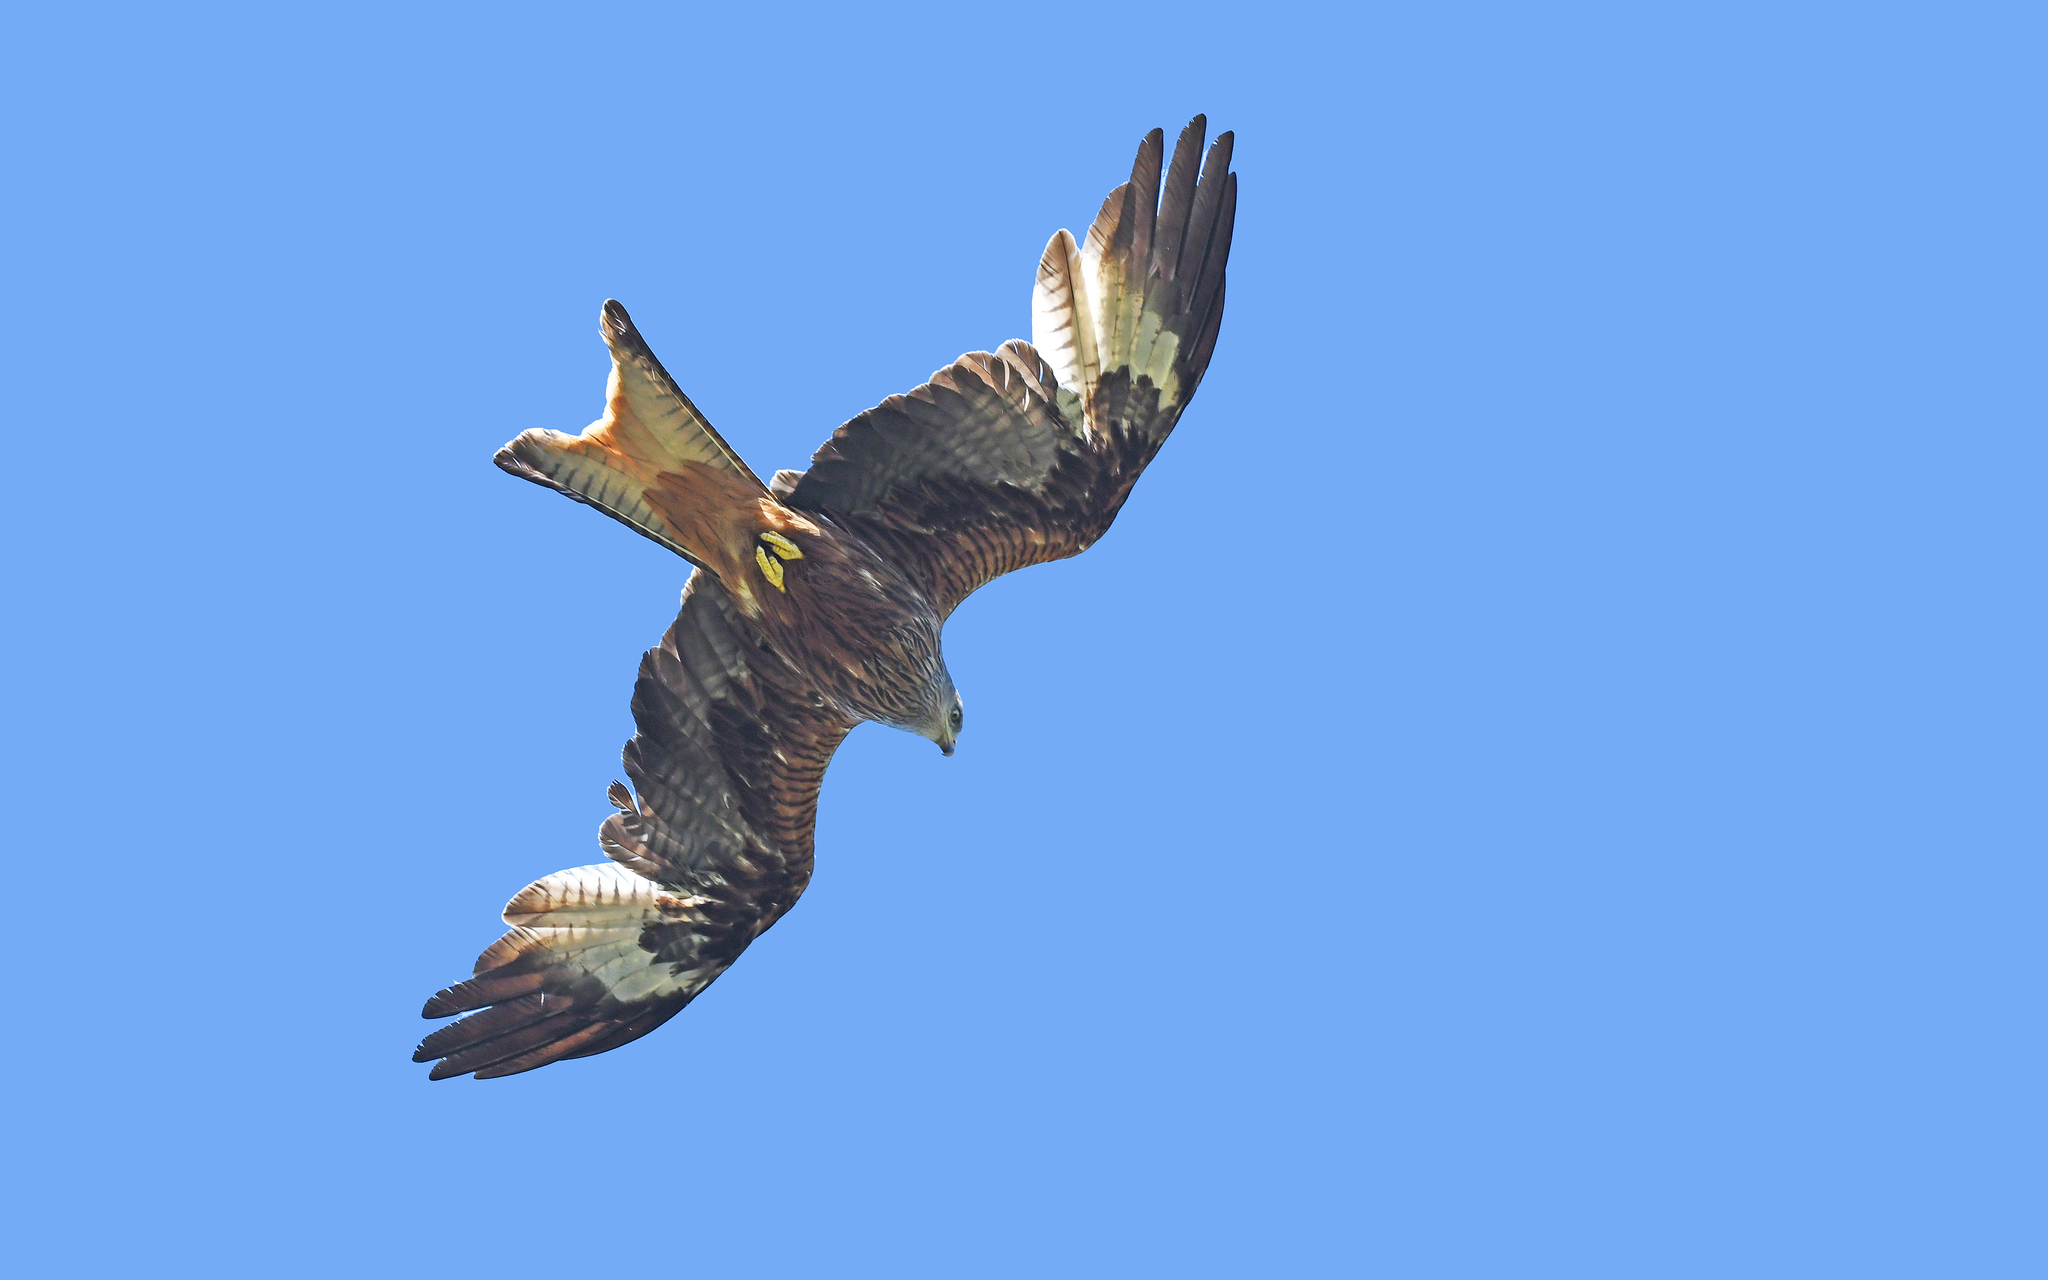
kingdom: Animalia
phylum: Chordata
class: Aves
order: Accipitriformes
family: Accipitridae
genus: Milvus
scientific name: Milvus milvus
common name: Red kite
